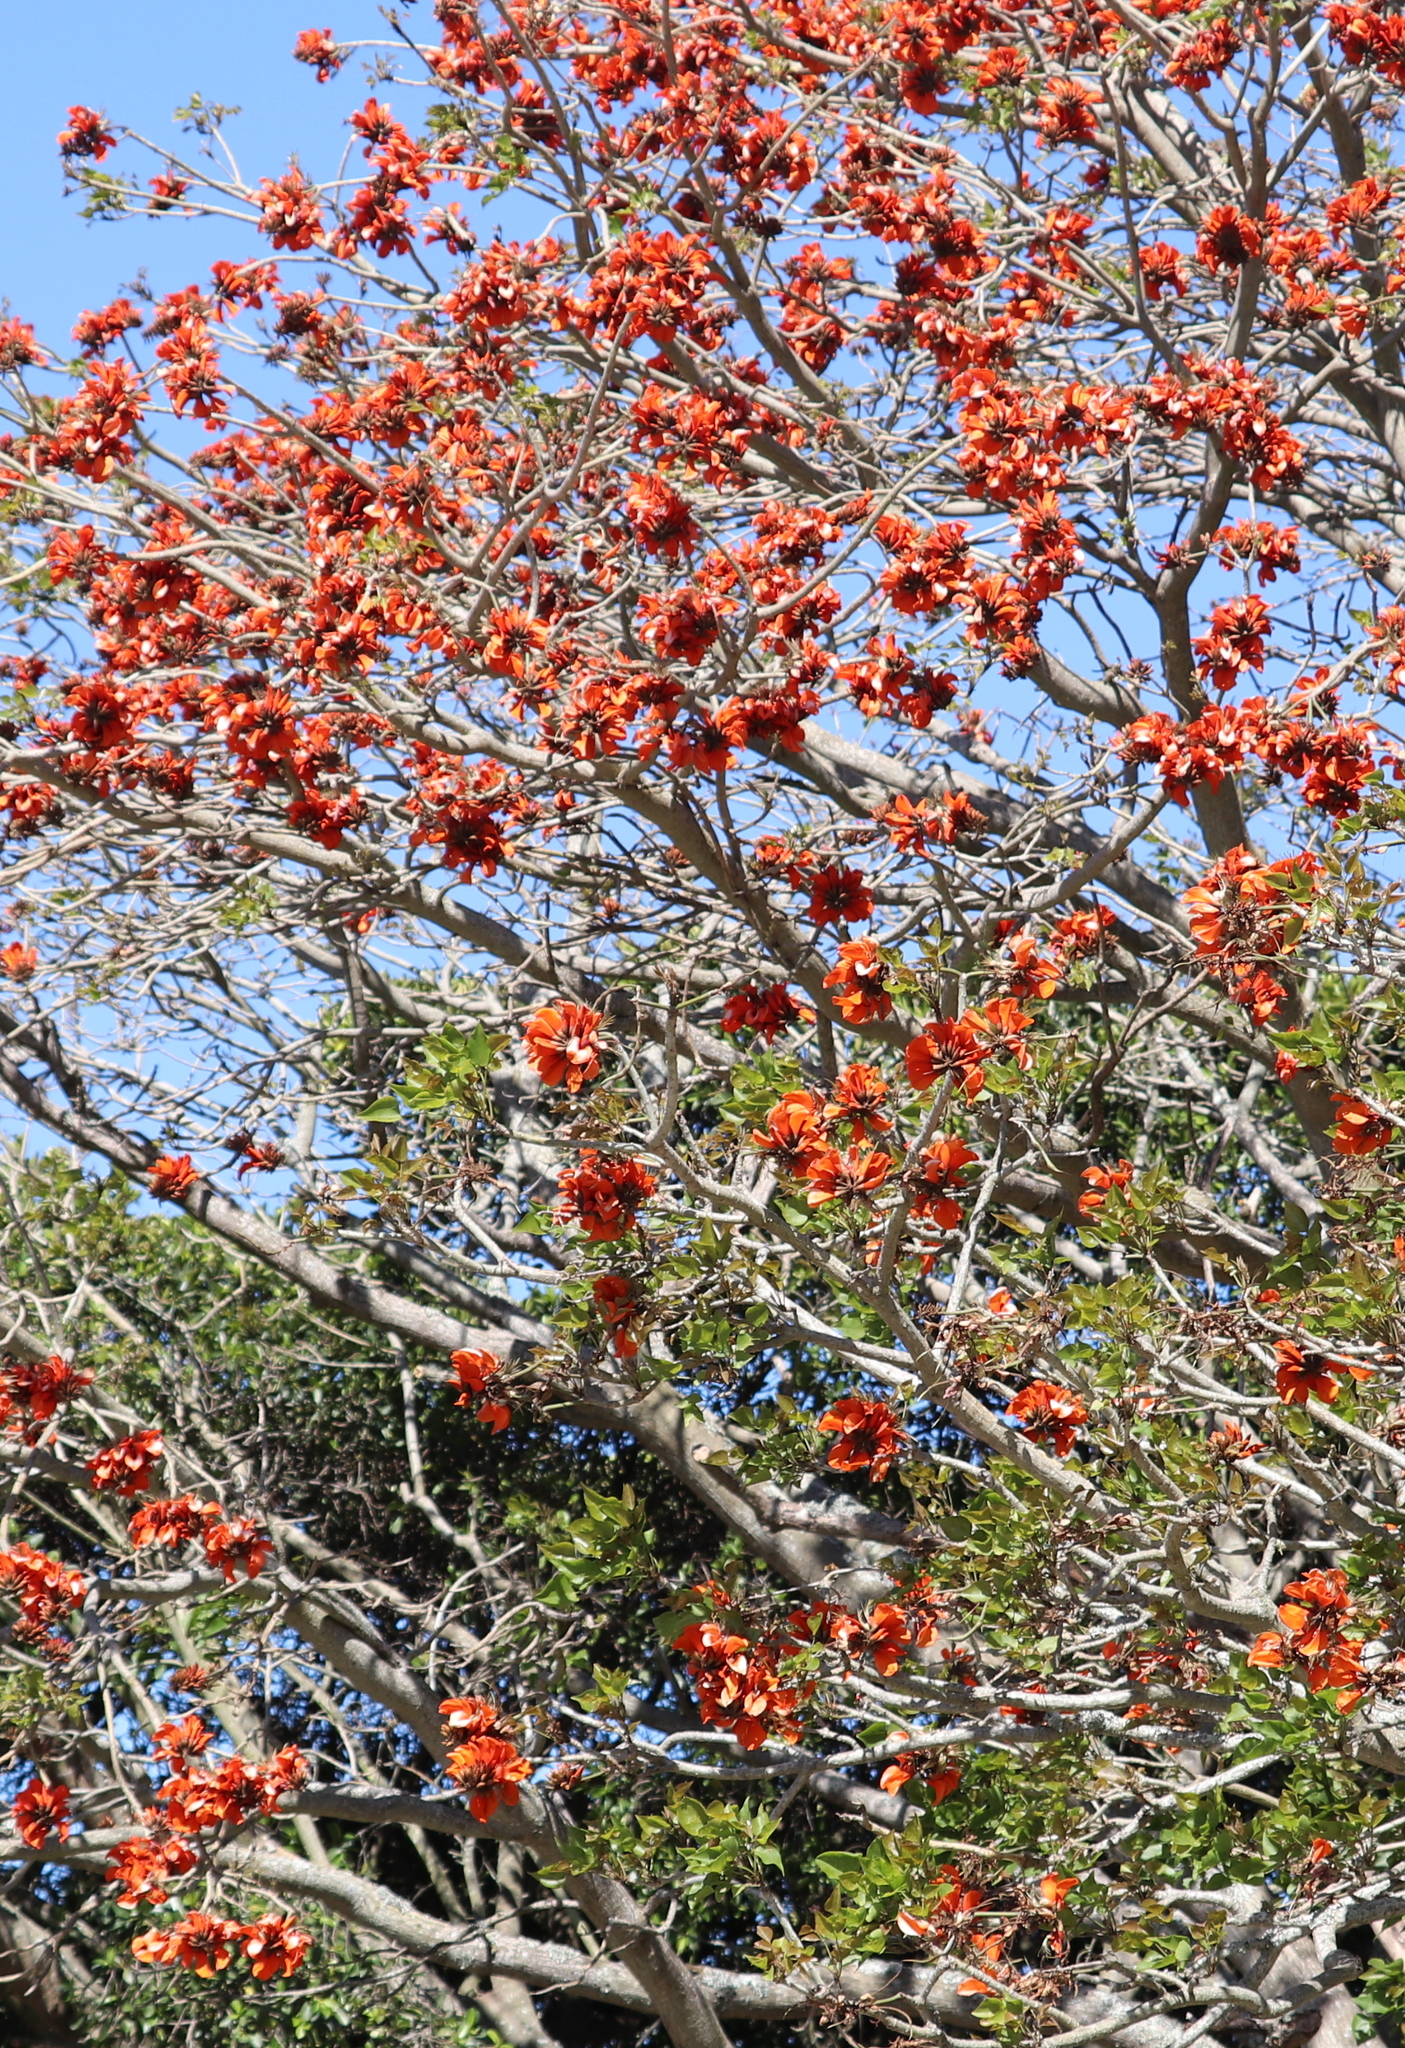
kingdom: Plantae
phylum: Tracheophyta
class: Magnoliopsida
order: Fabales
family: Fabaceae
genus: Erythrina
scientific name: Erythrina caffra
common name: Coast coral tree
